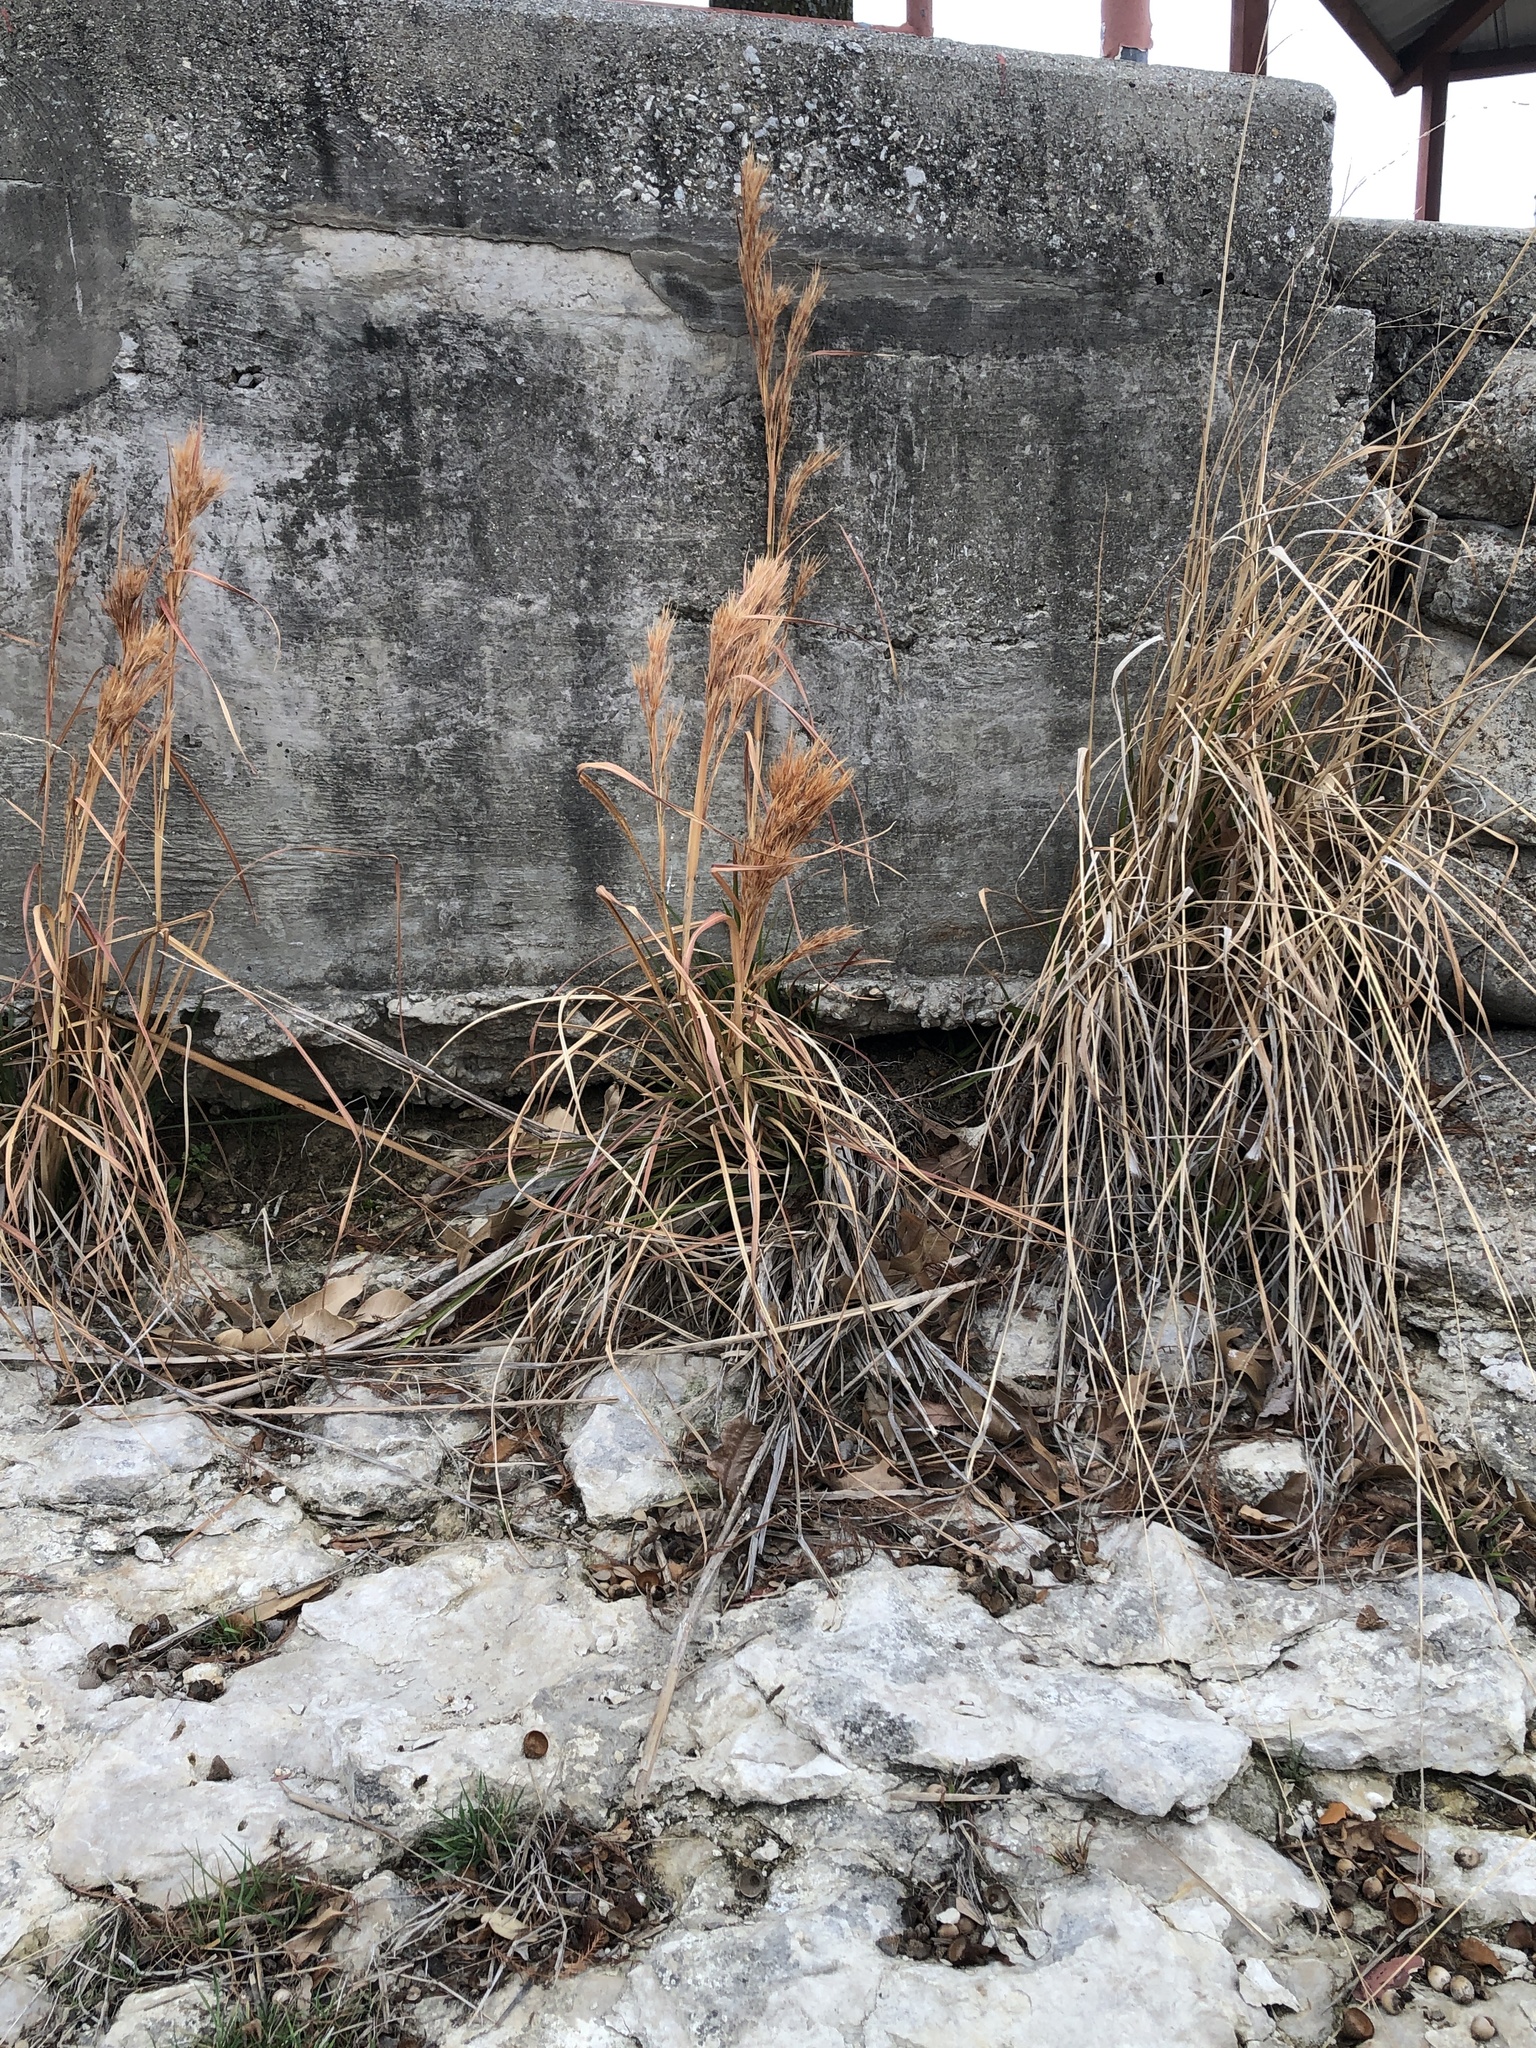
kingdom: Plantae
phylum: Tracheophyta
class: Liliopsida
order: Poales
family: Poaceae
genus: Andropogon
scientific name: Andropogon tenuispatheus
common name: Bushy bluestem
